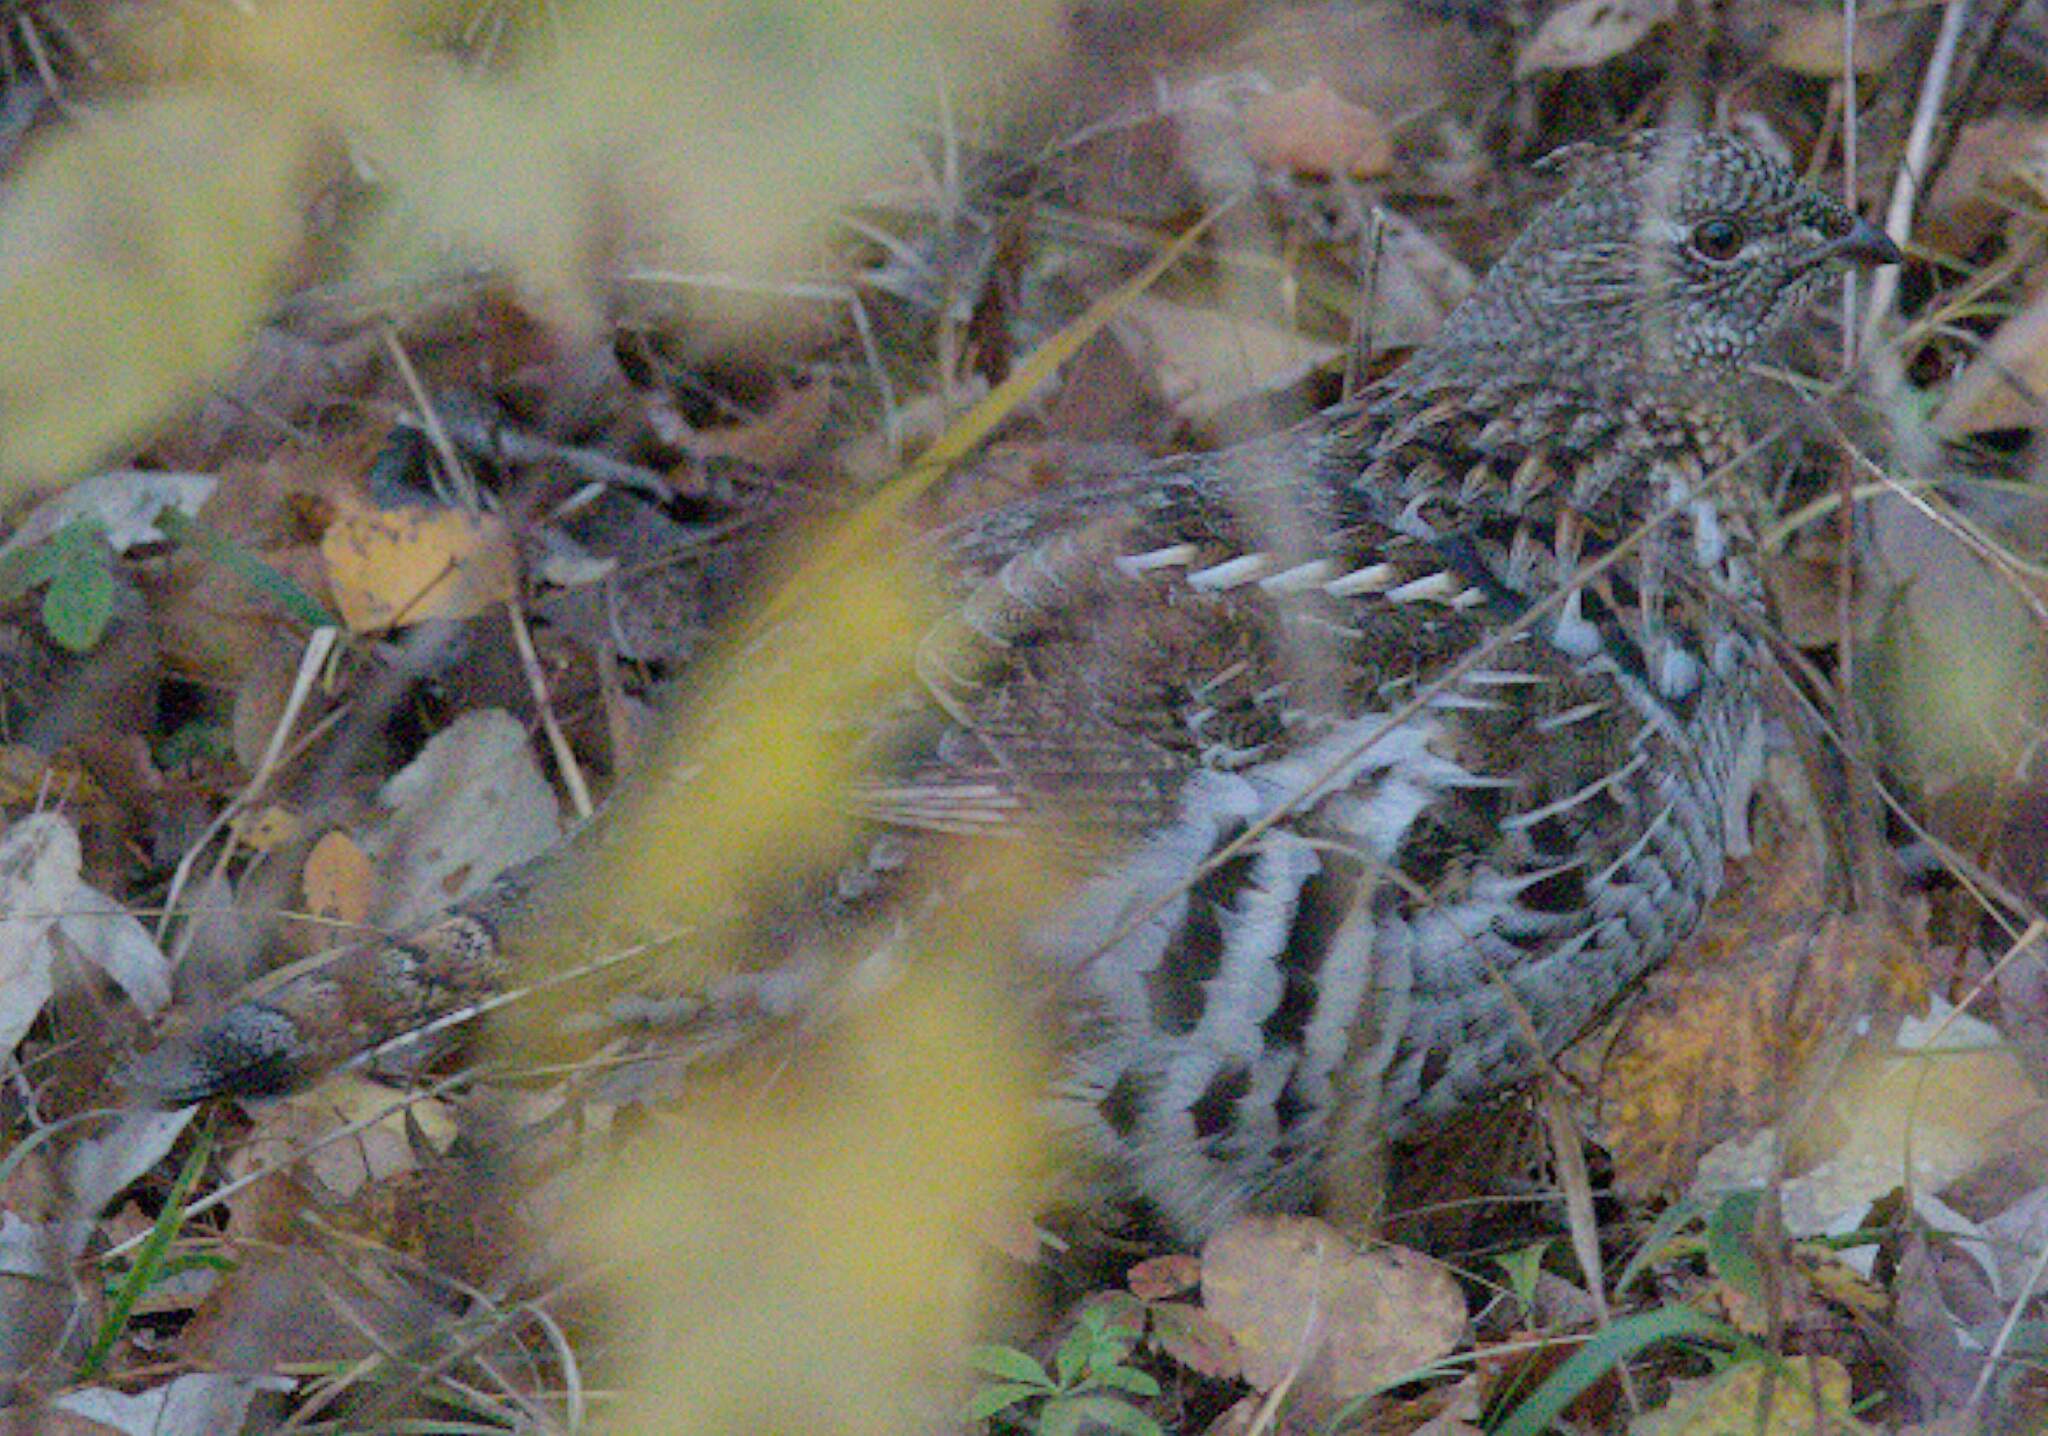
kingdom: Animalia
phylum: Chordata
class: Aves
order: Galliformes
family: Phasianidae
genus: Bonasa
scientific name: Bonasa umbellus
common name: Ruffed grouse
